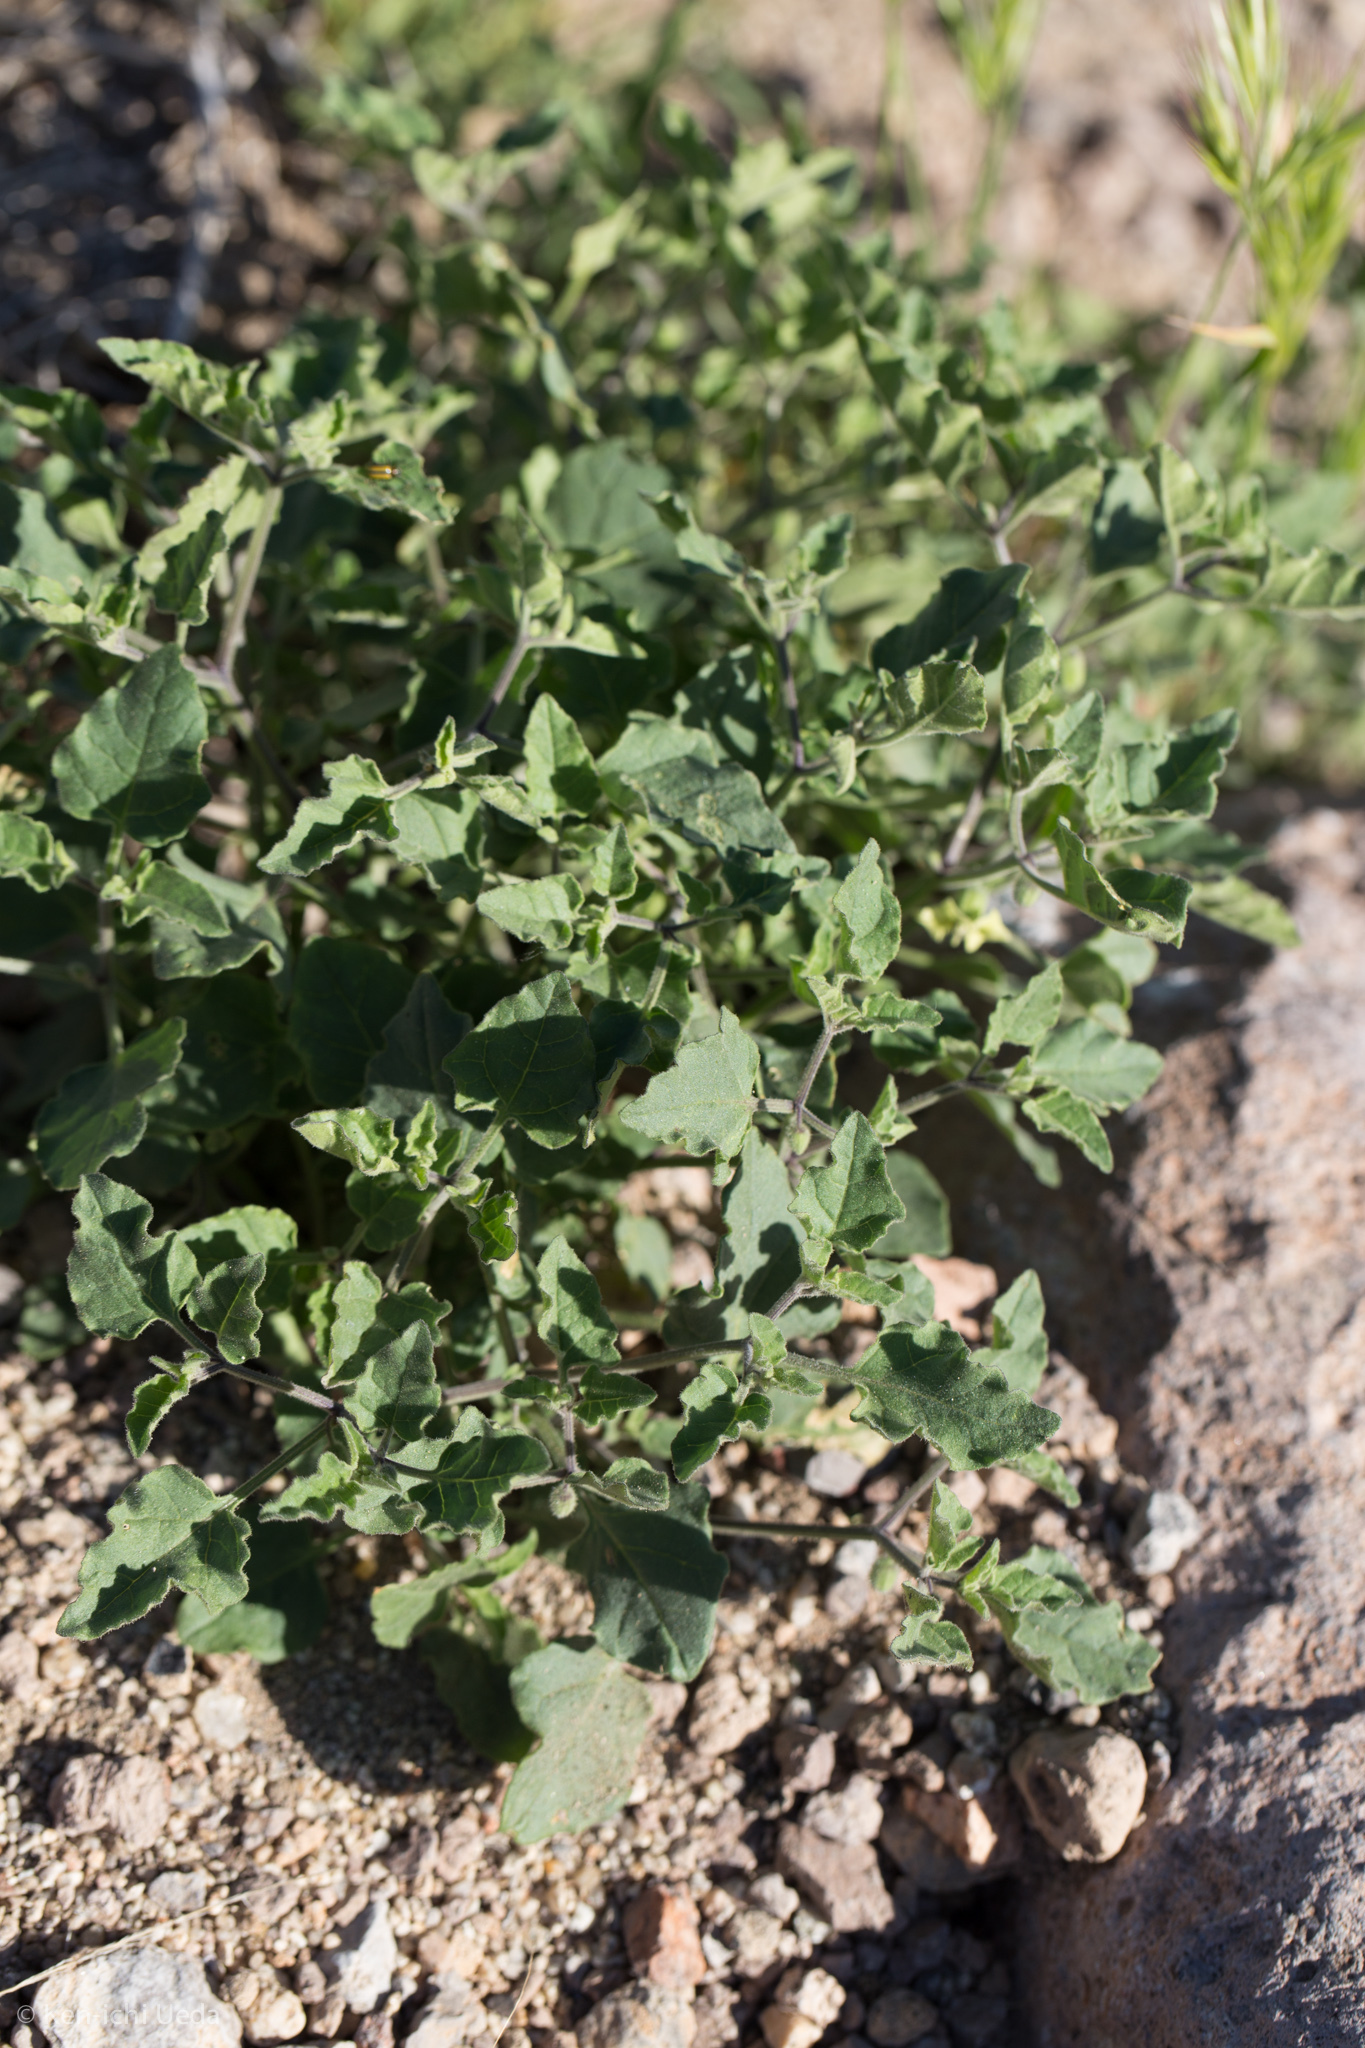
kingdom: Plantae
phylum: Tracheophyta
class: Magnoliopsida
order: Solanales
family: Solanaceae
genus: Physalis
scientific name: Physalis hederifolia
